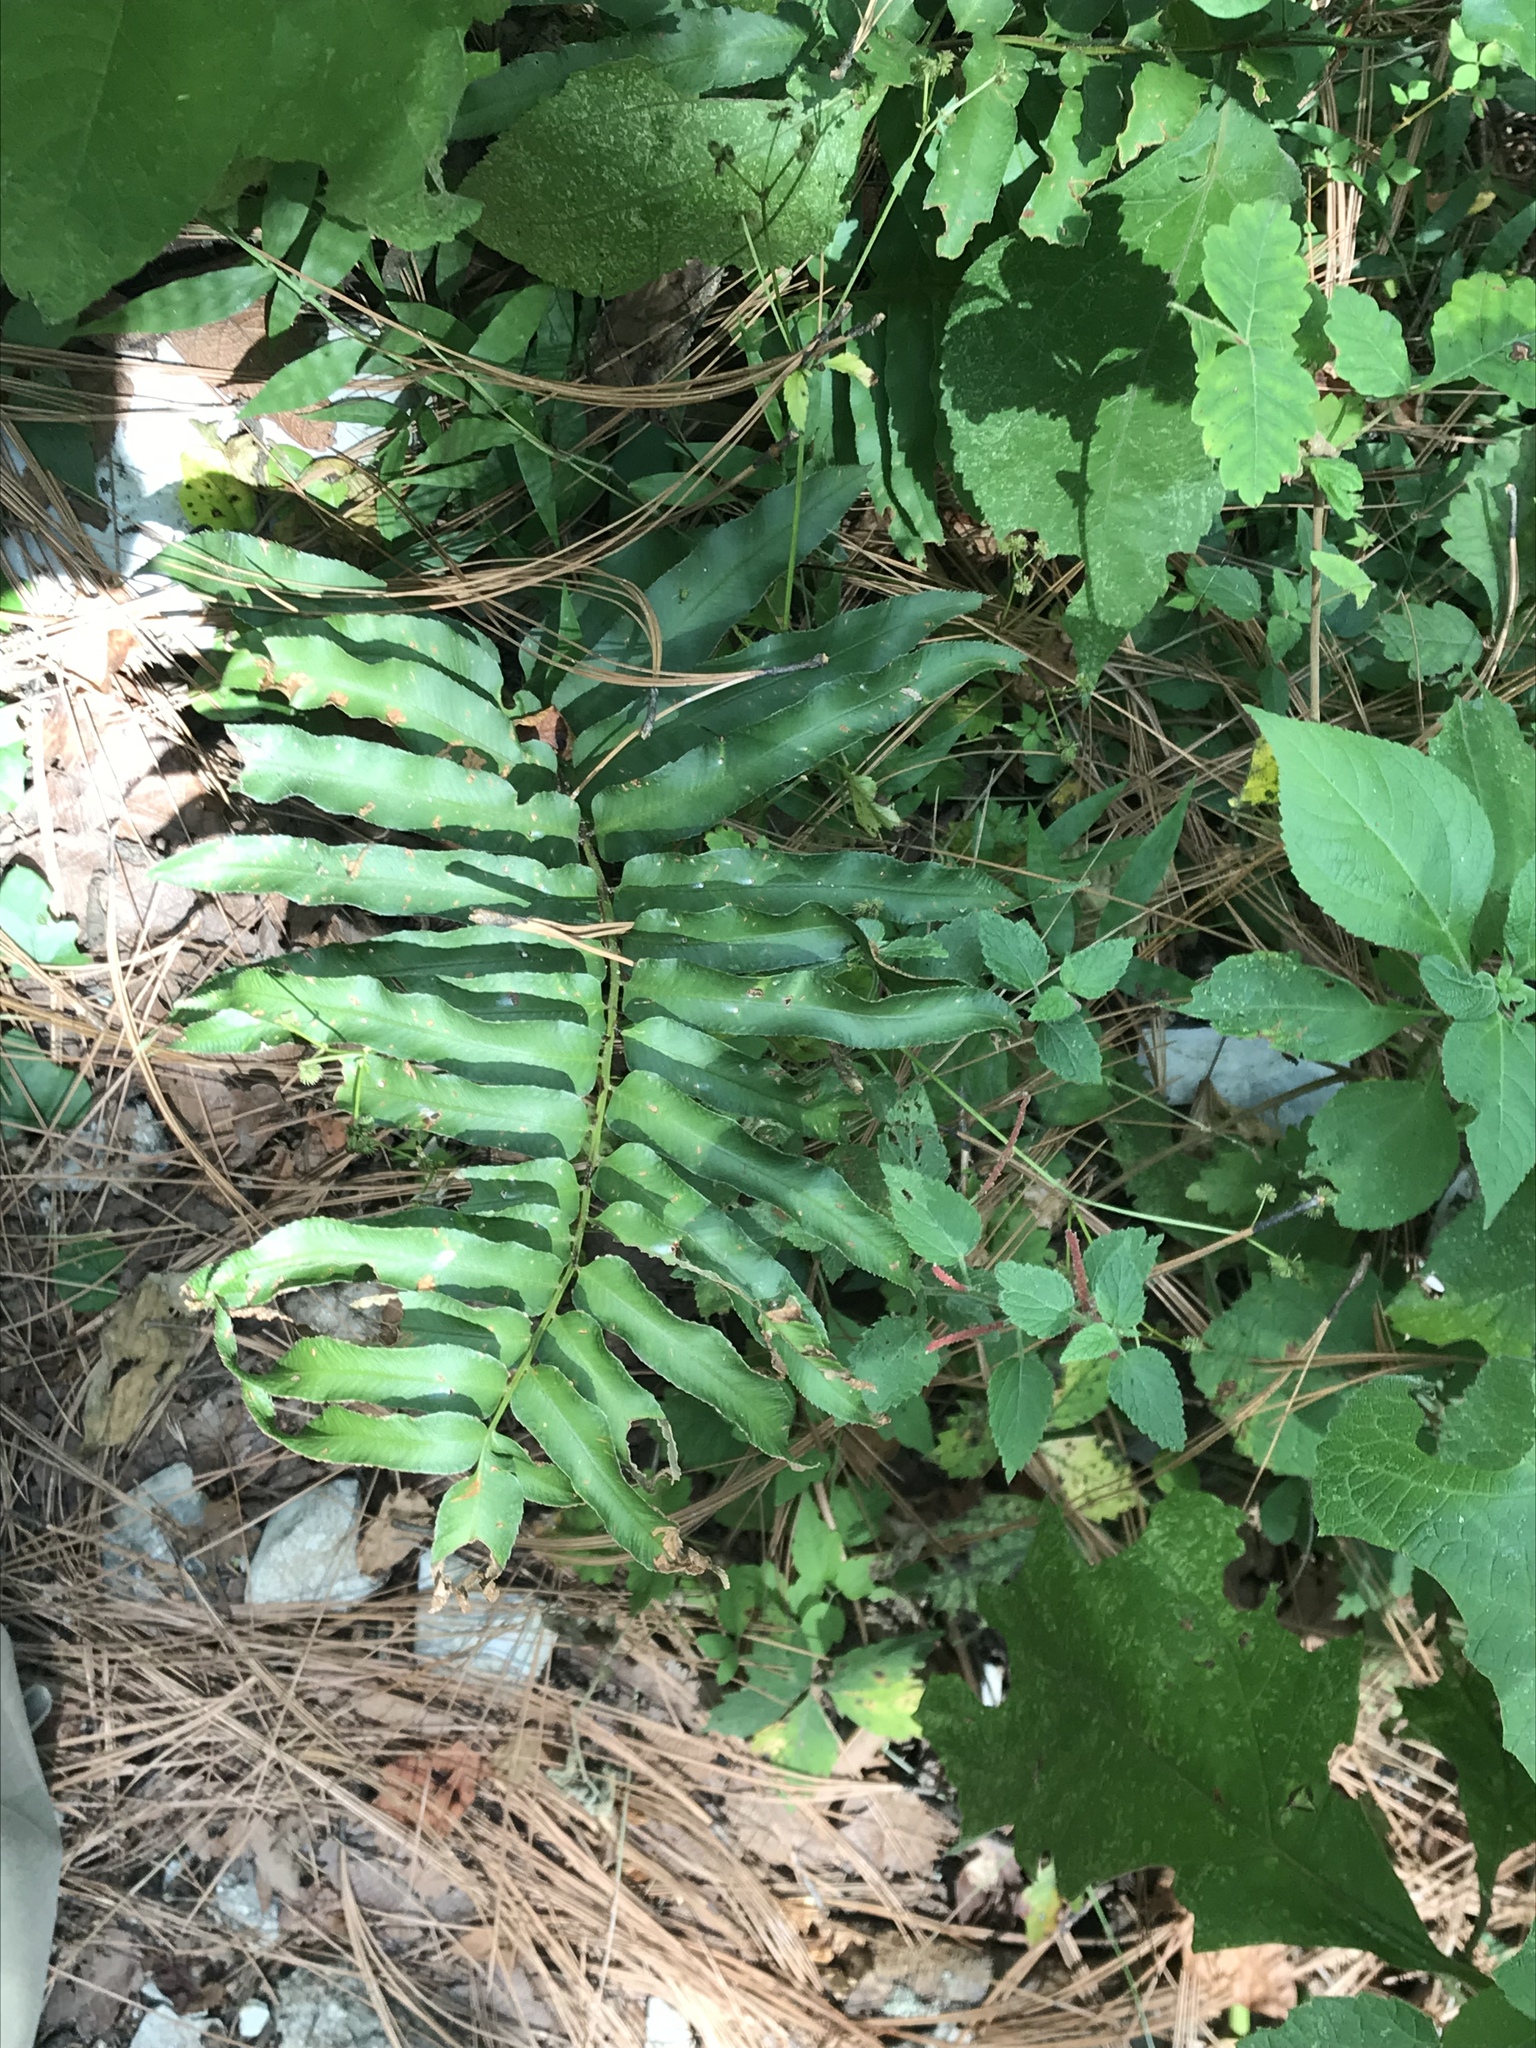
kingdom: Plantae
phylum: Tracheophyta
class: Polypodiopsida
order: Polypodiales
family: Dryopteridaceae
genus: Phanerophlebia
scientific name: Phanerophlebia umbonata
